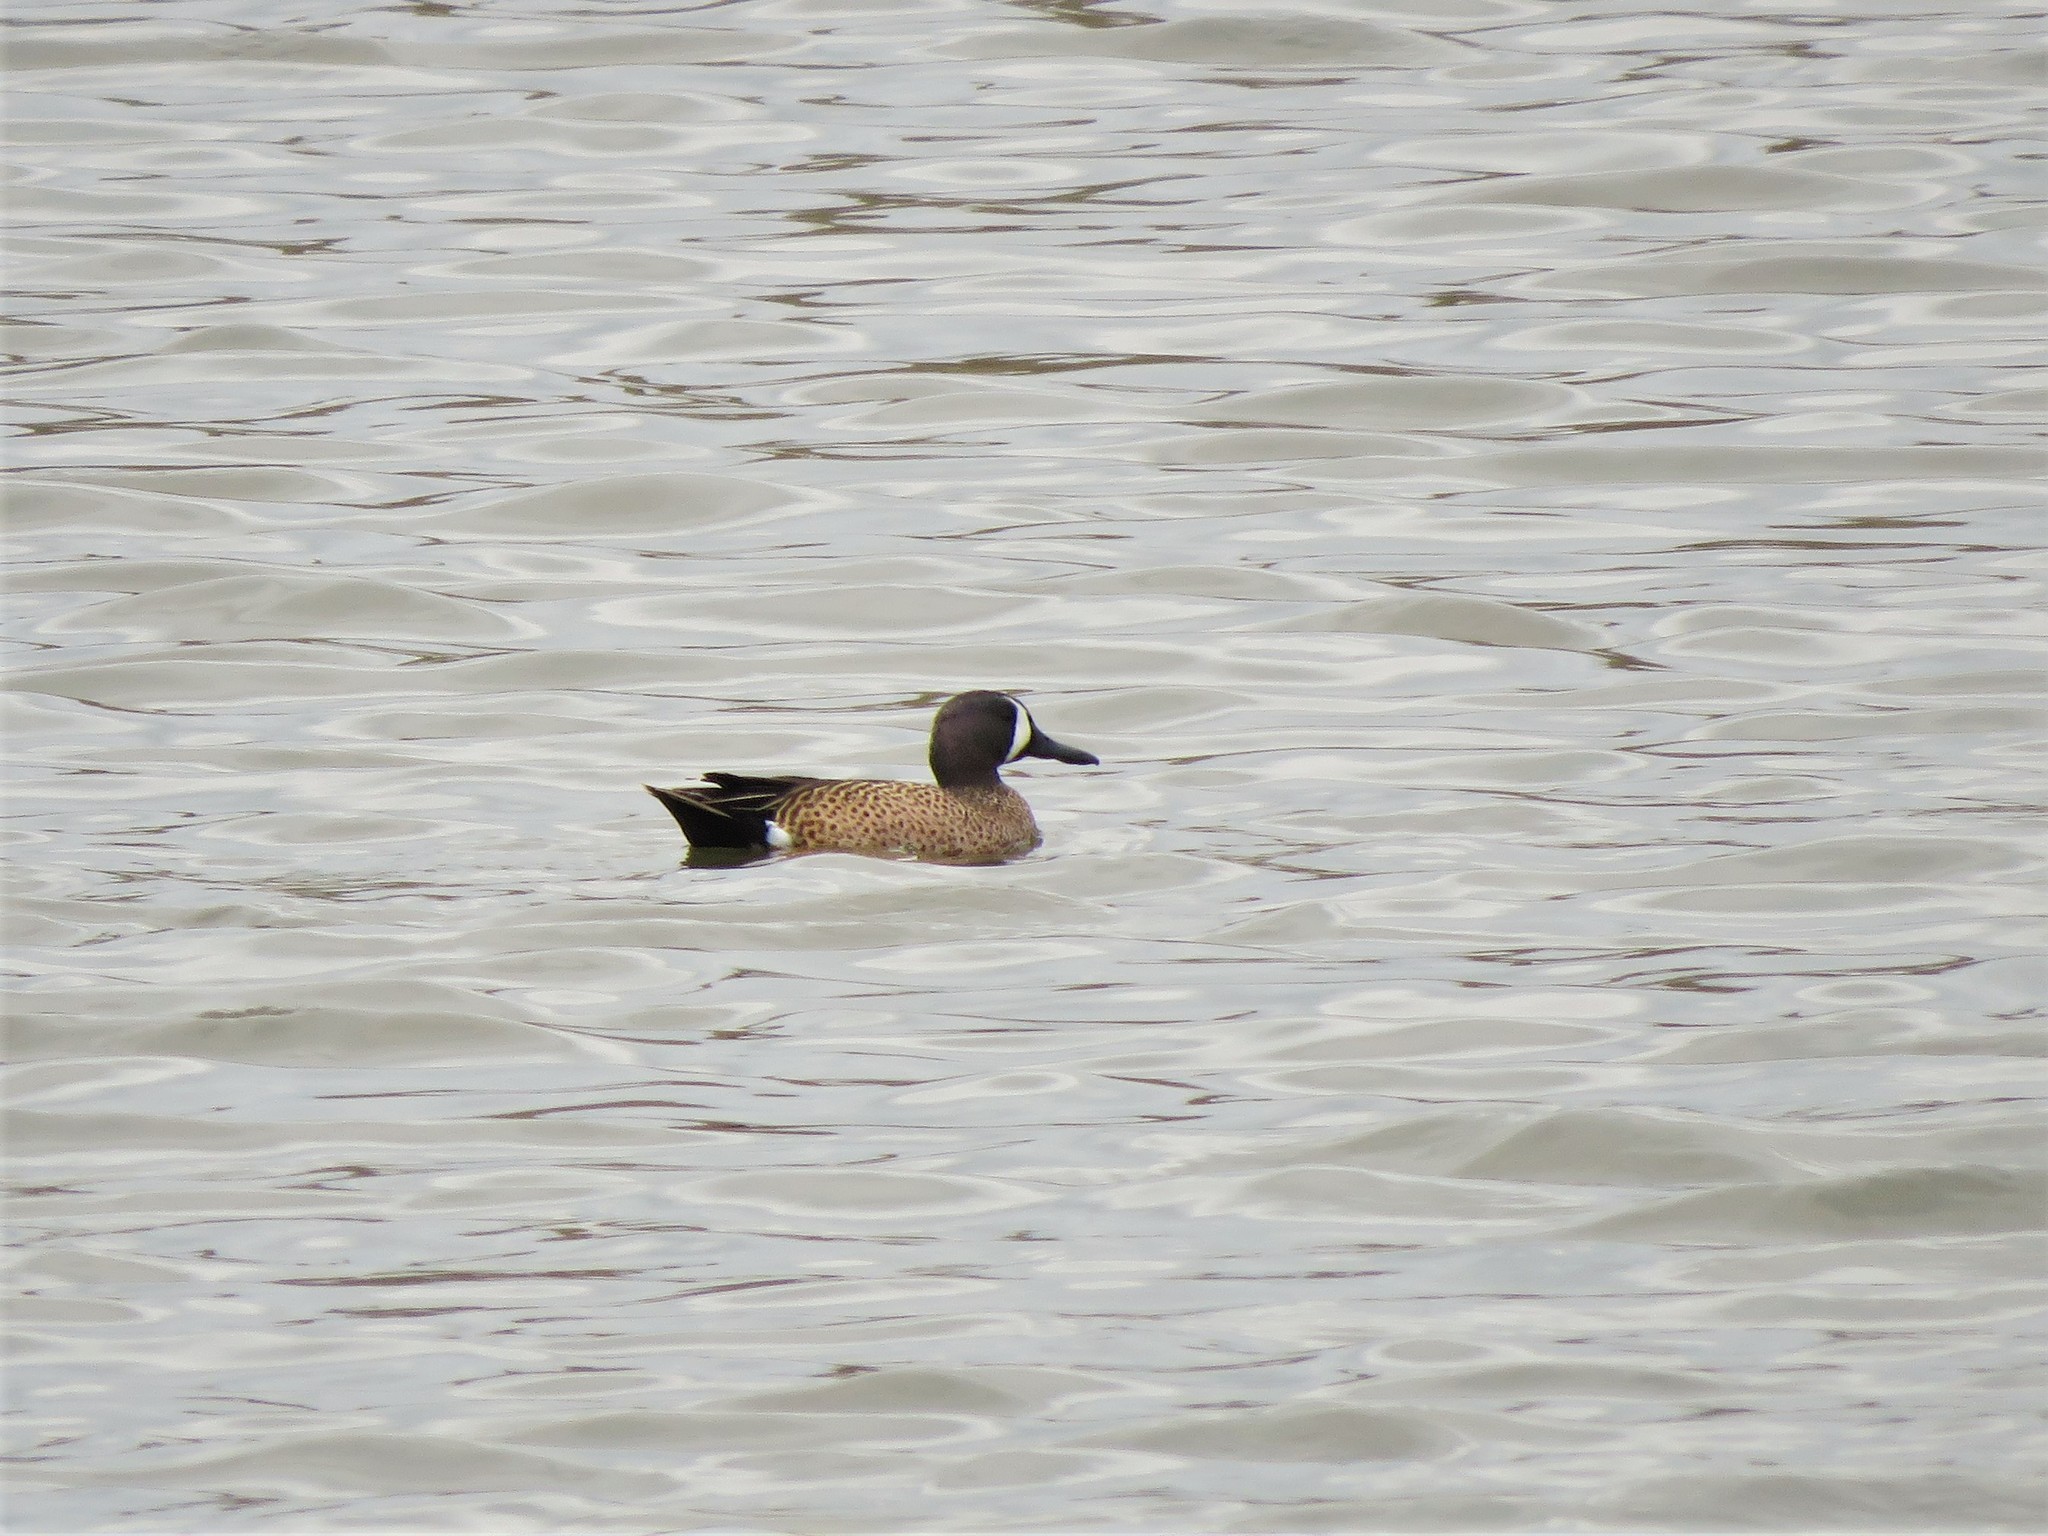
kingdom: Animalia
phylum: Chordata
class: Aves
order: Anseriformes
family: Anatidae
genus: Spatula
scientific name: Spatula discors
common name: Blue-winged teal
